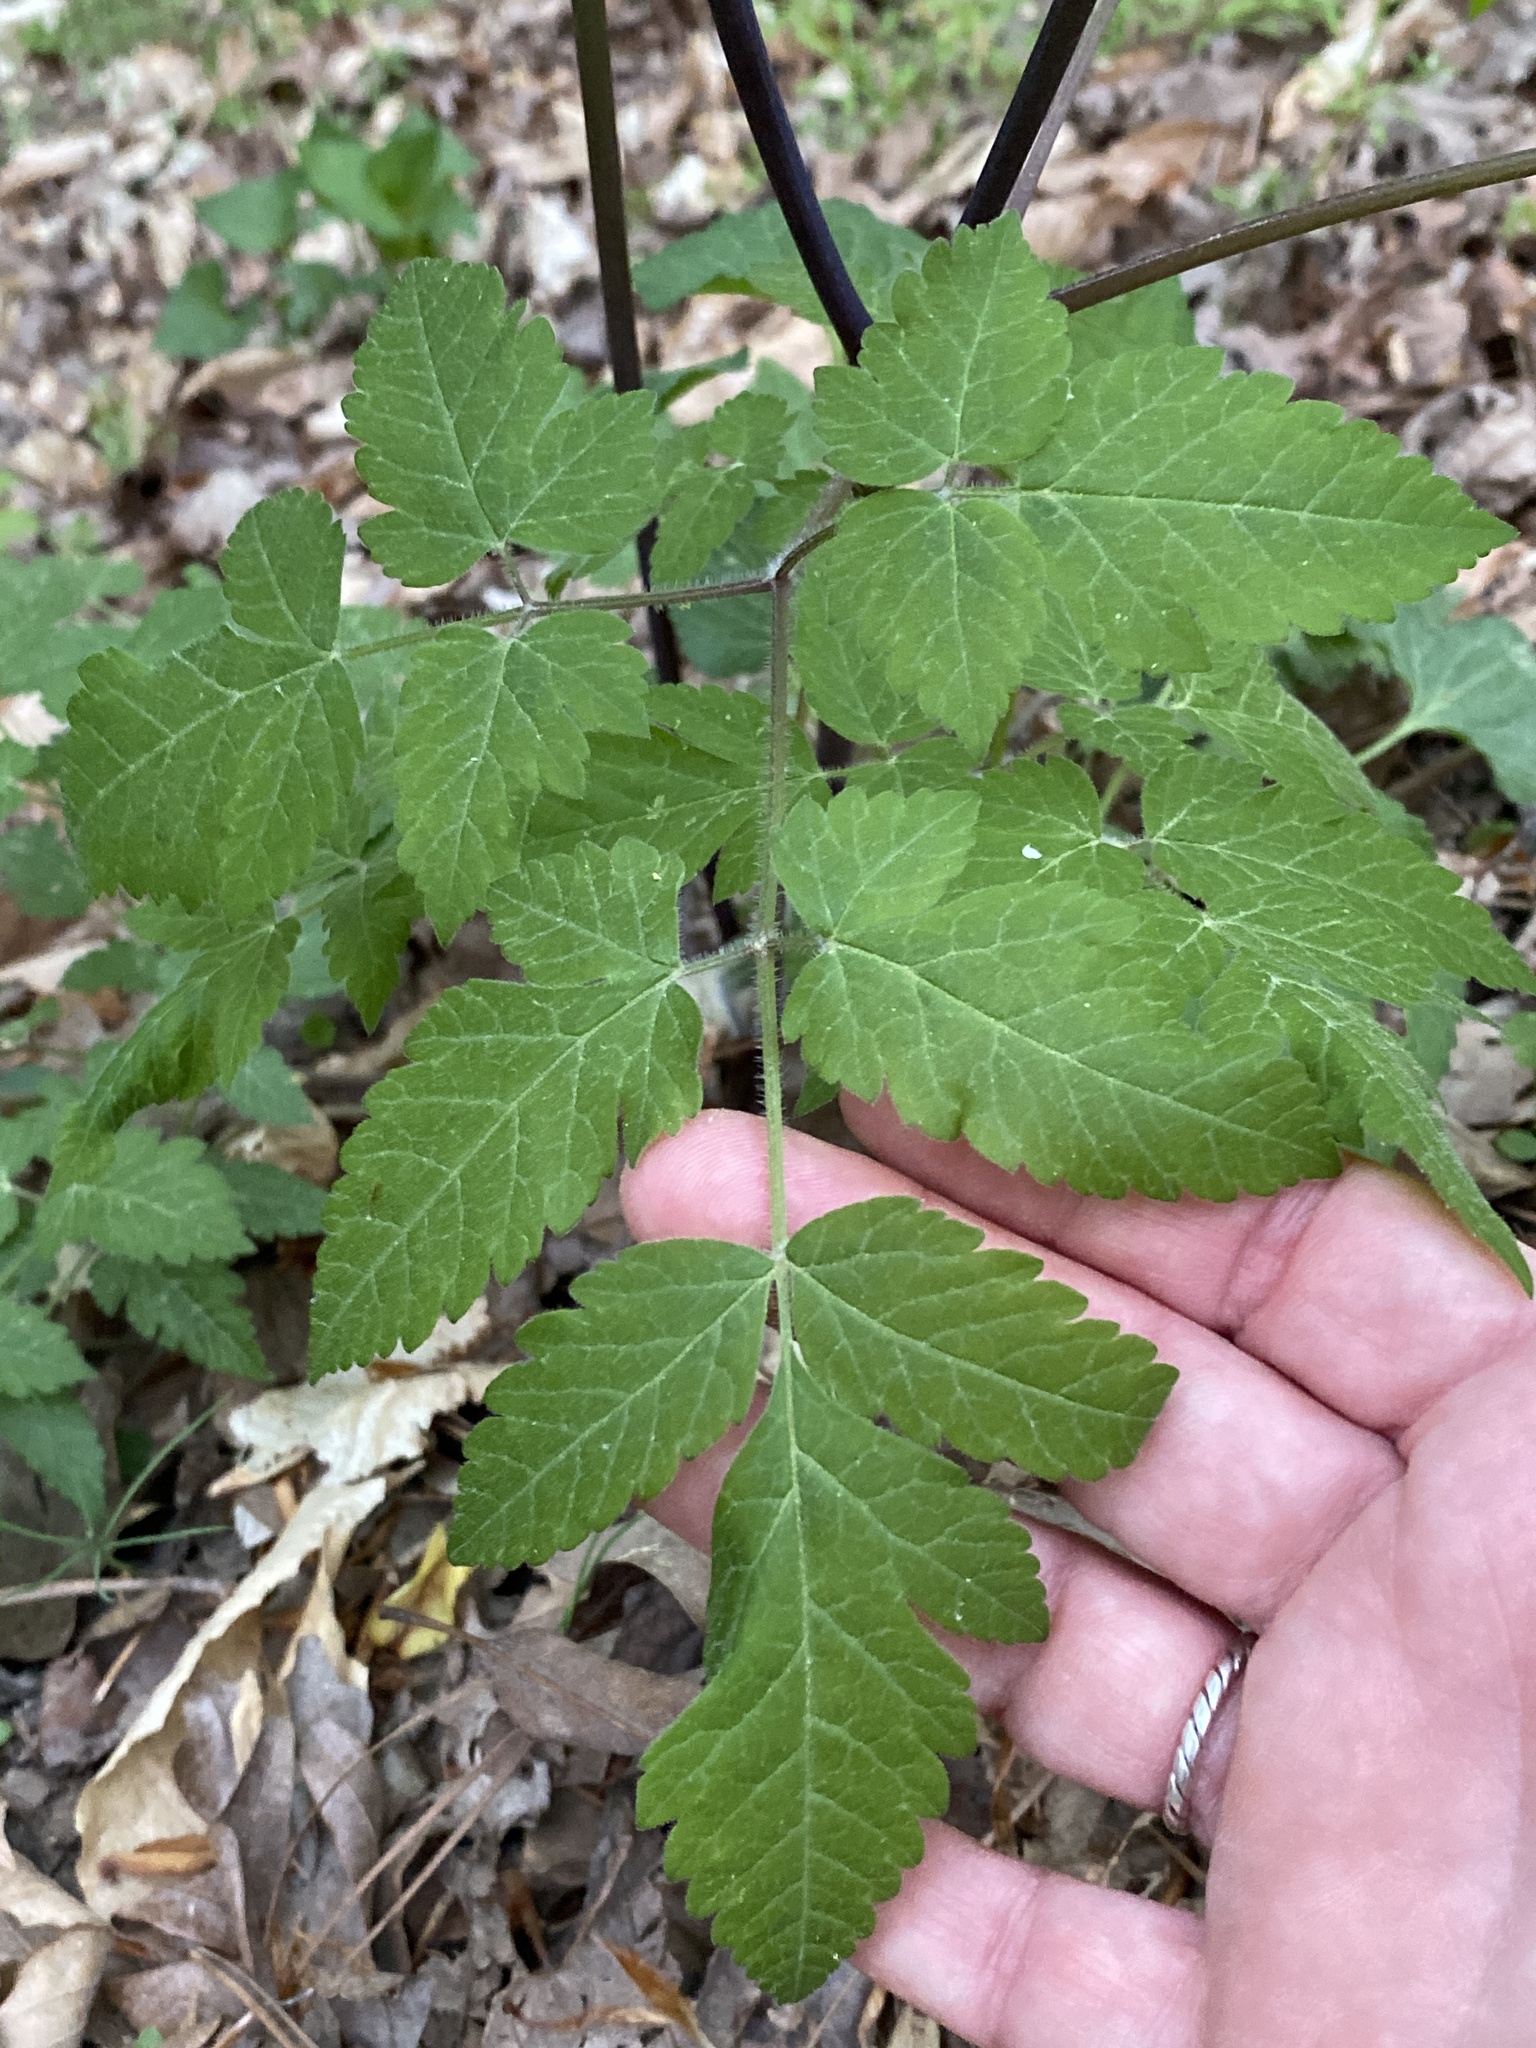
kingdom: Plantae
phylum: Tracheophyta
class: Magnoliopsida
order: Apiales
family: Apiaceae
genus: Osmorhiza
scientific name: Osmorhiza longistylis
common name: Smooth sweet cicely
